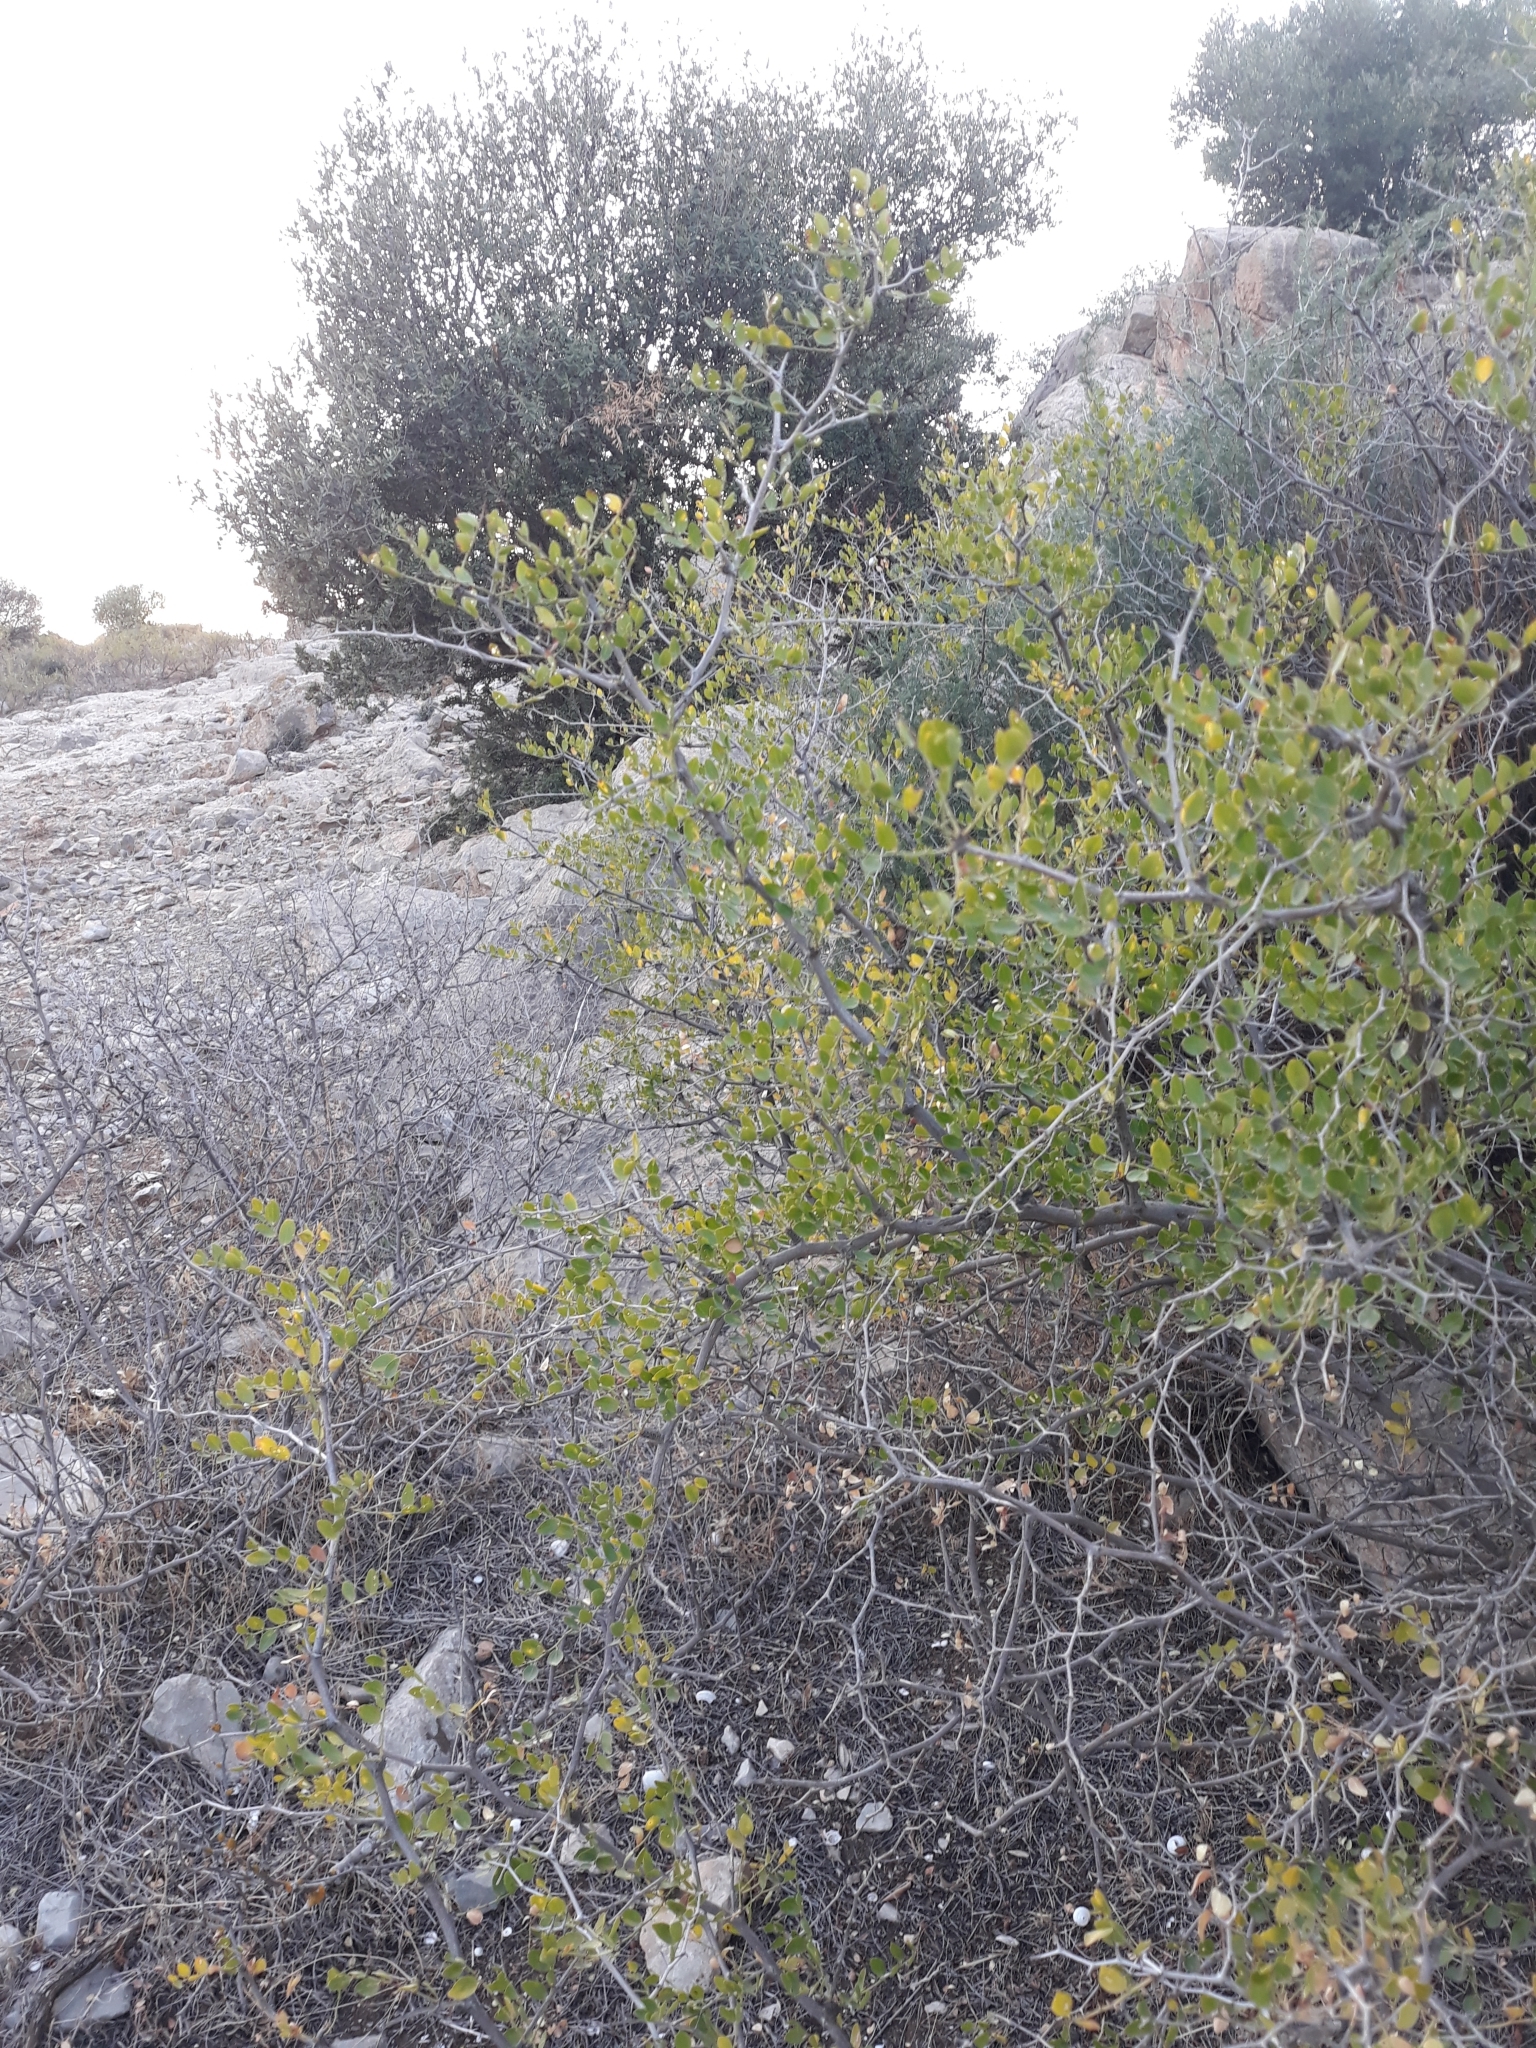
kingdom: Plantae
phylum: Tracheophyta
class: Magnoliopsida
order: Rosales
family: Rhamnaceae
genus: Ziziphus
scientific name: Ziziphus lotus
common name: Lotus
